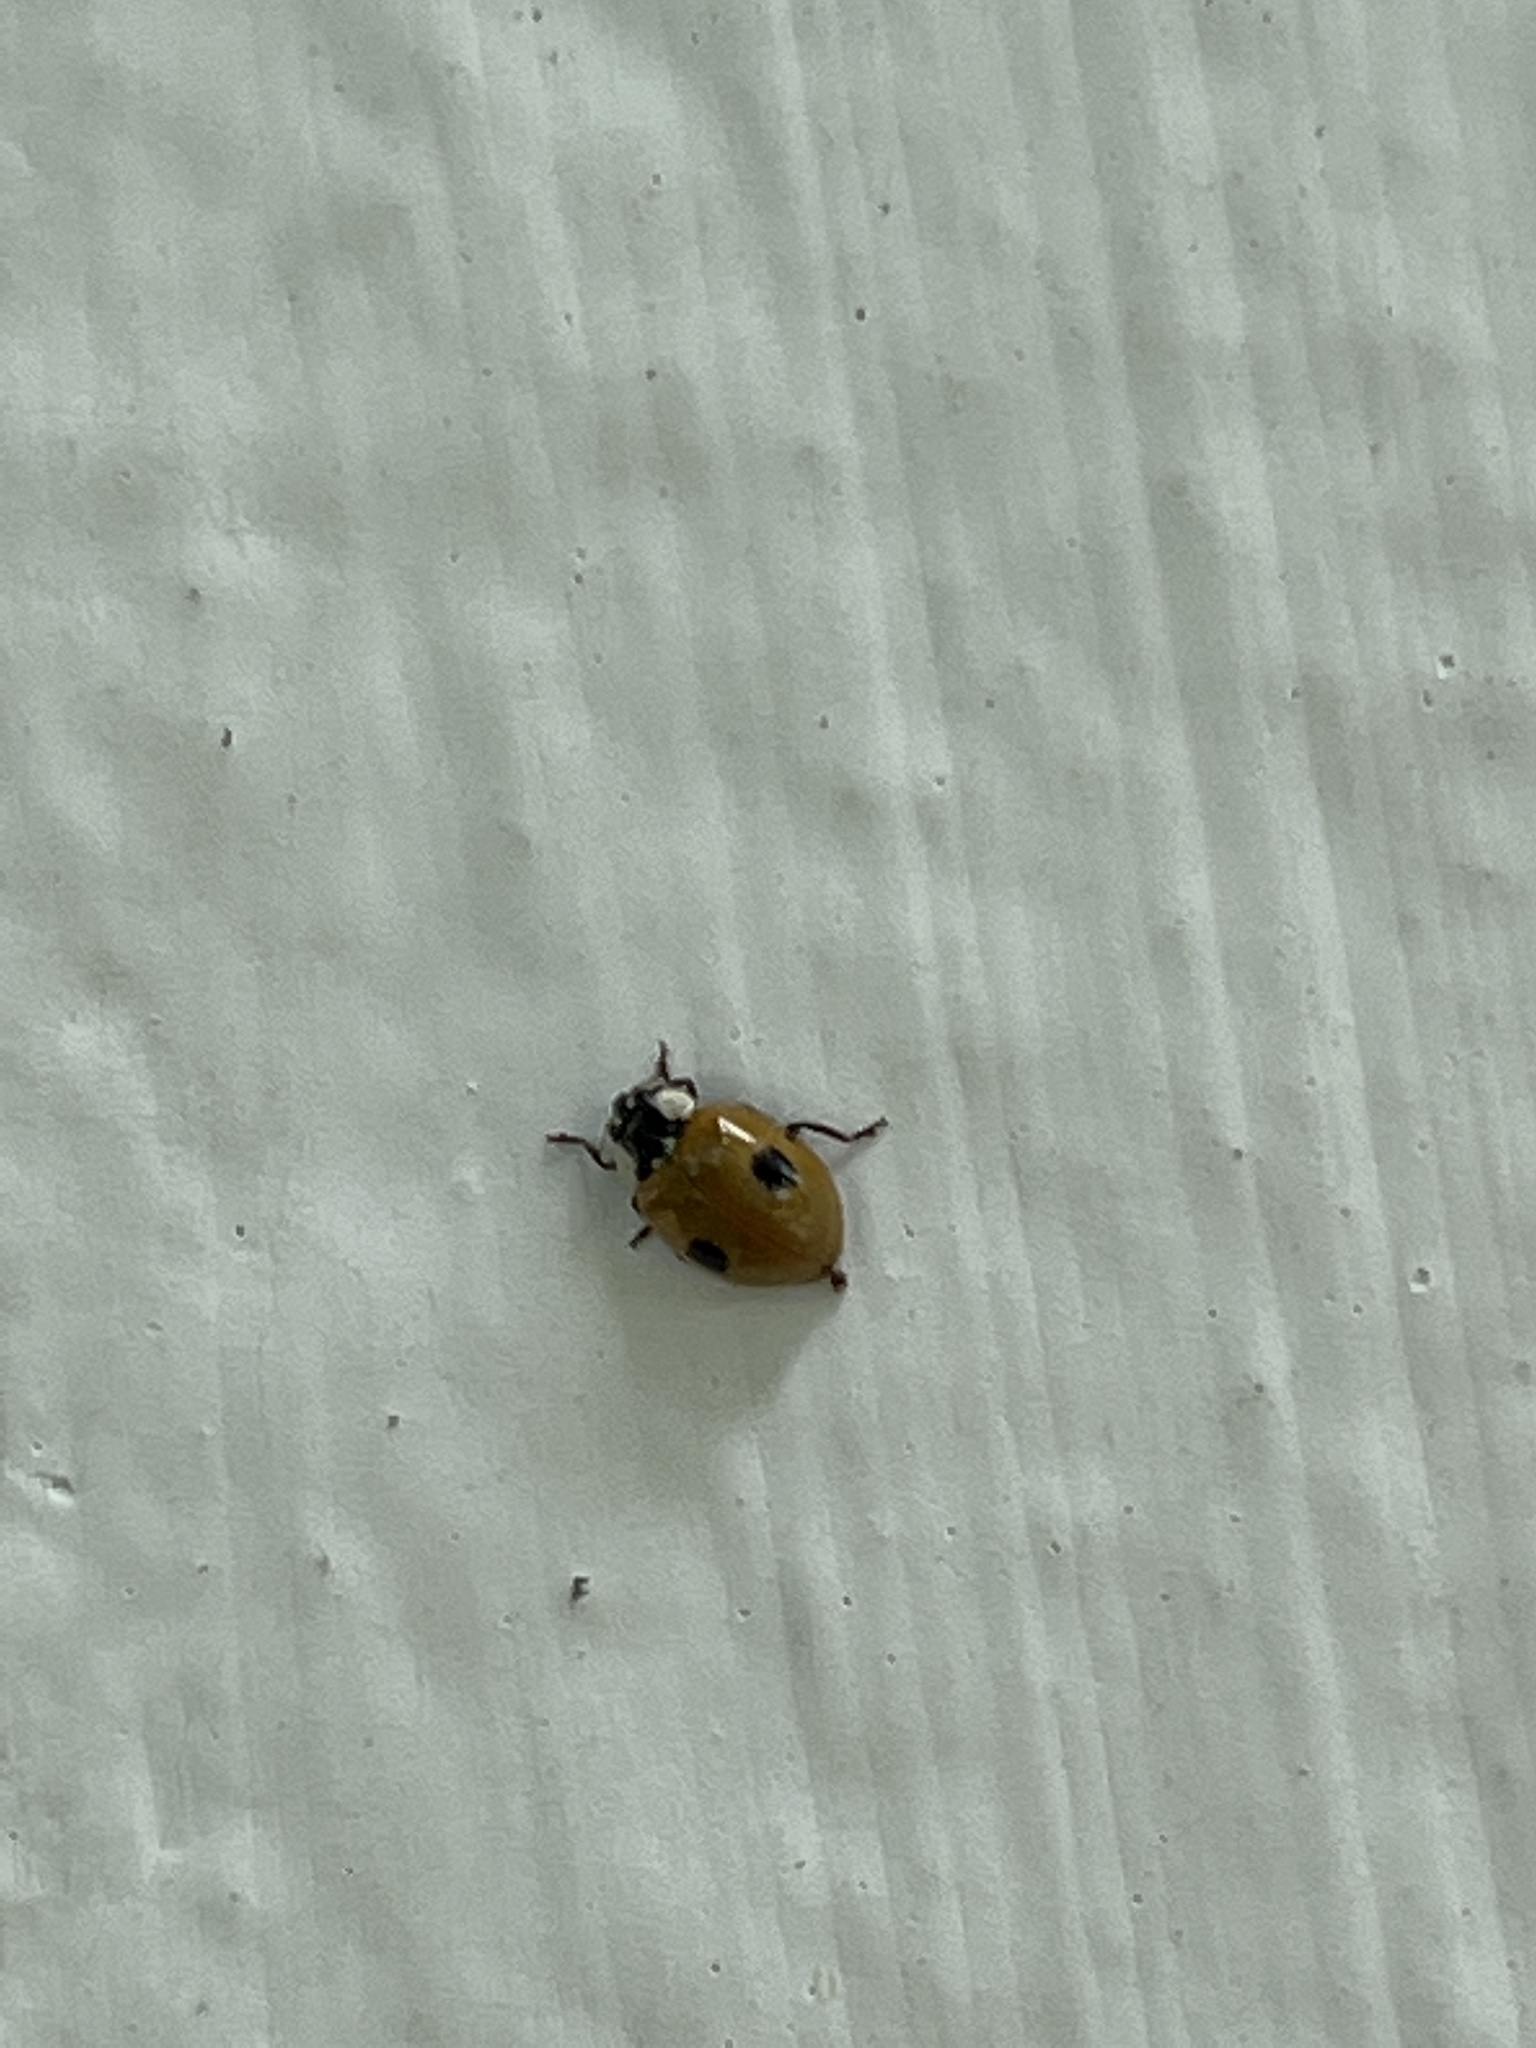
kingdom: Animalia
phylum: Arthropoda
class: Insecta
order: Coleoptera
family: Coccinellidae
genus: Adalia
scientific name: Adalia bipunctata
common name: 2-spot ladybird
